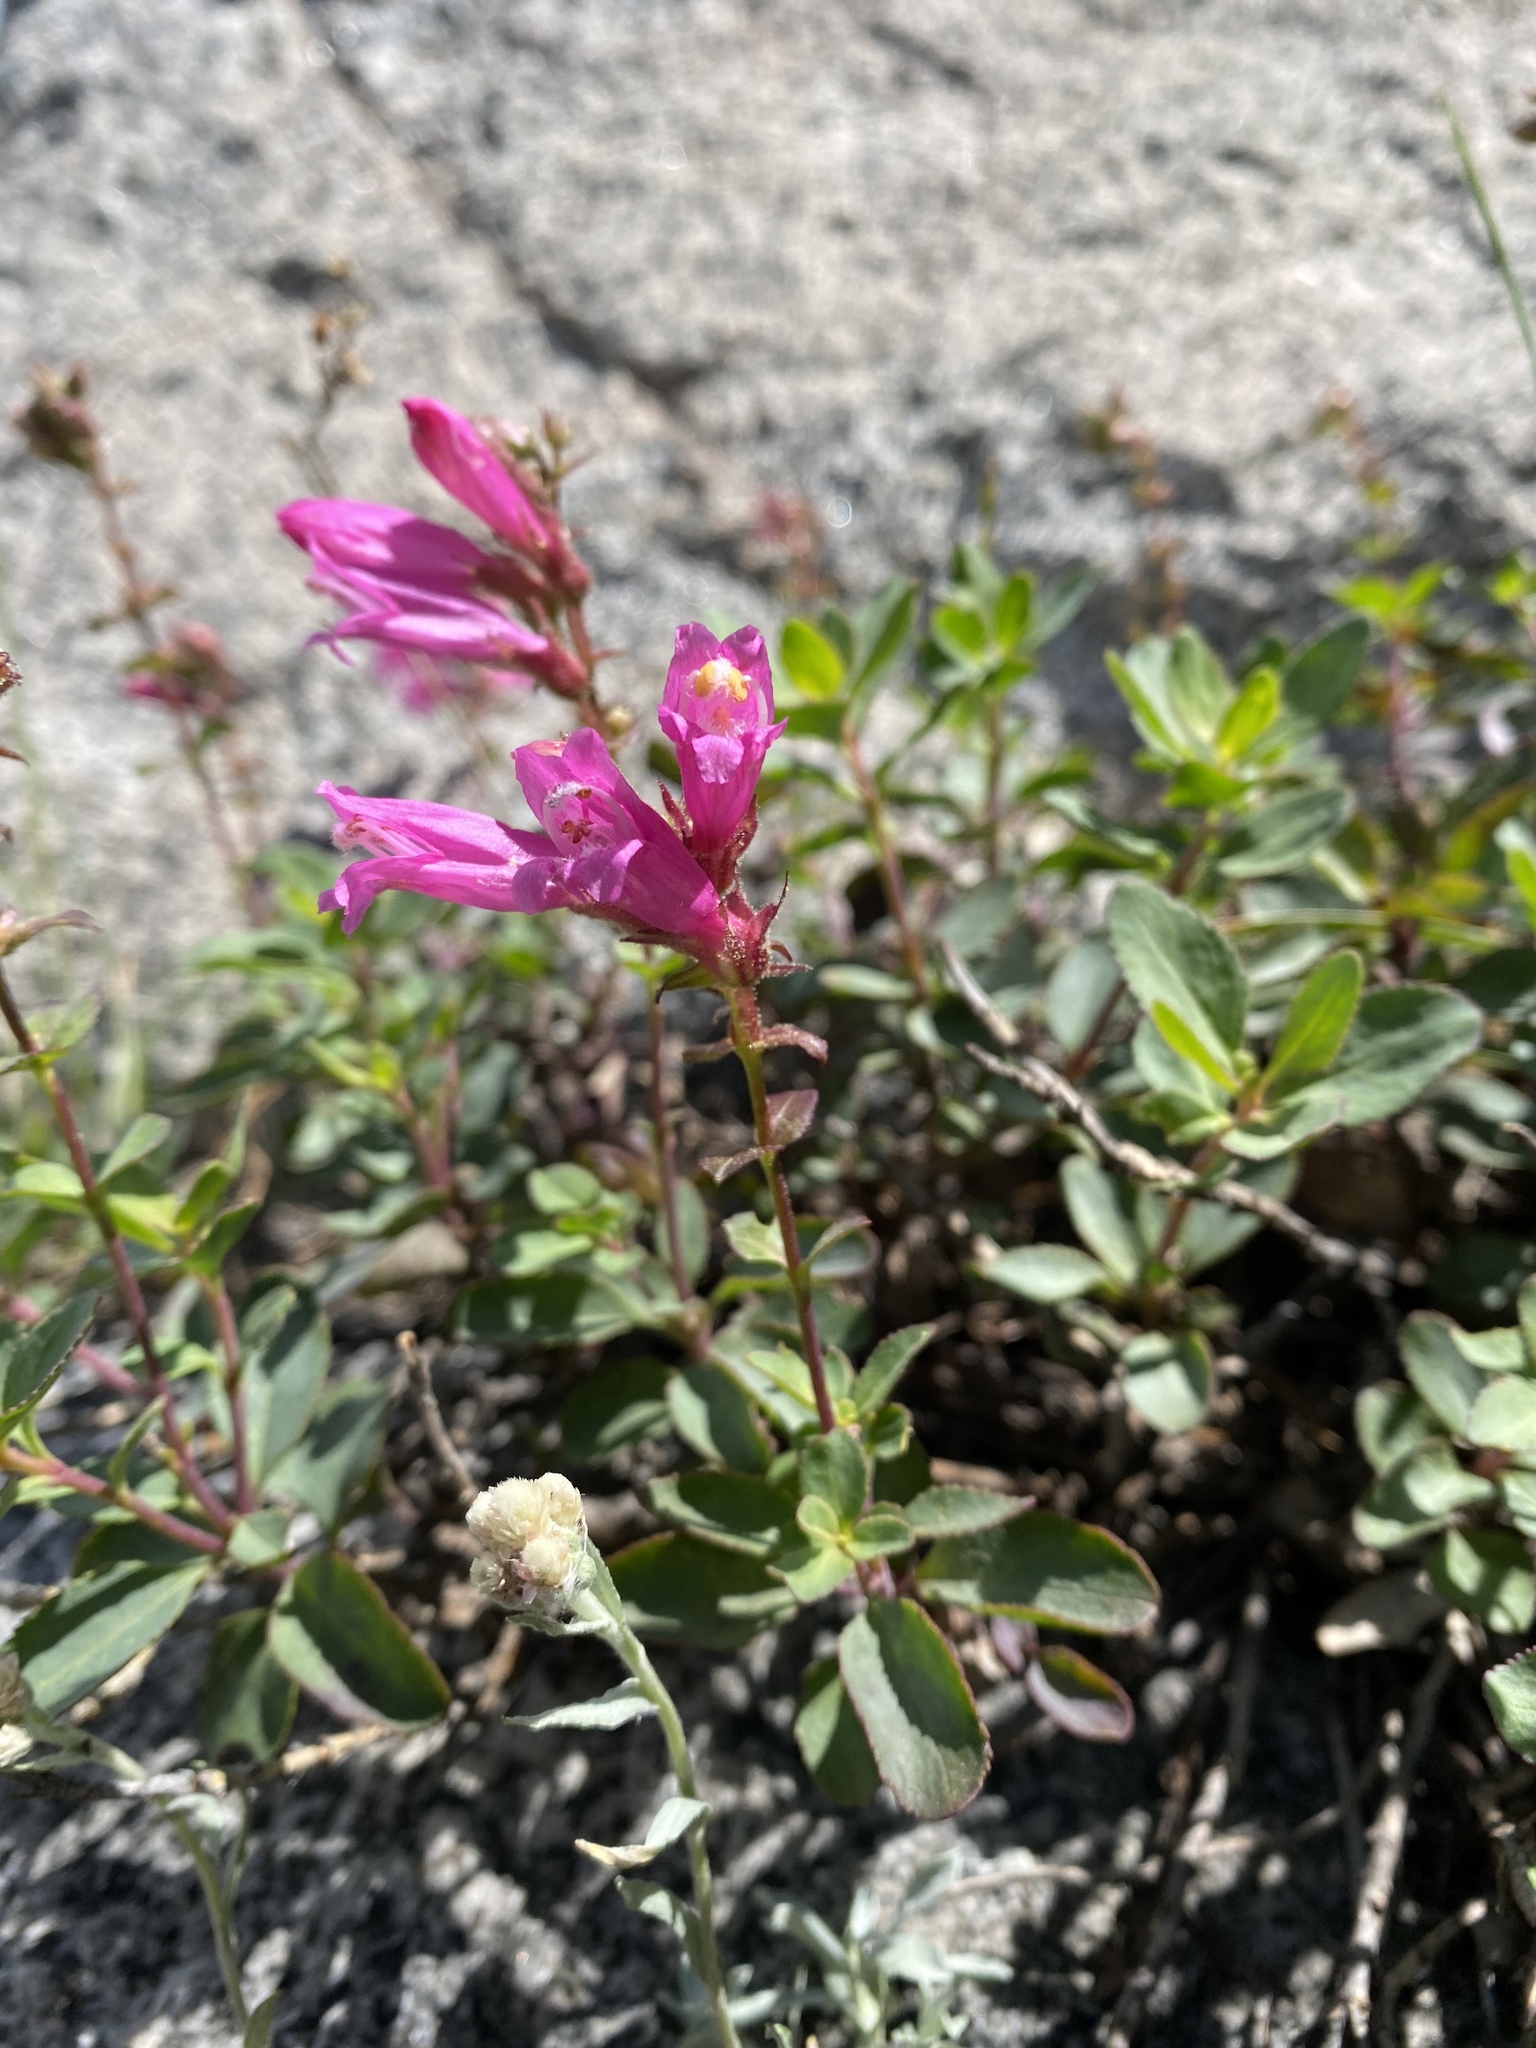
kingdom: Plantae
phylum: Tracheophyta
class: Magnoliopsida
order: Lamiales
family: Plantaginaceae
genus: Penstemon
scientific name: Penstemon newberryi
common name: Mountain-pride
